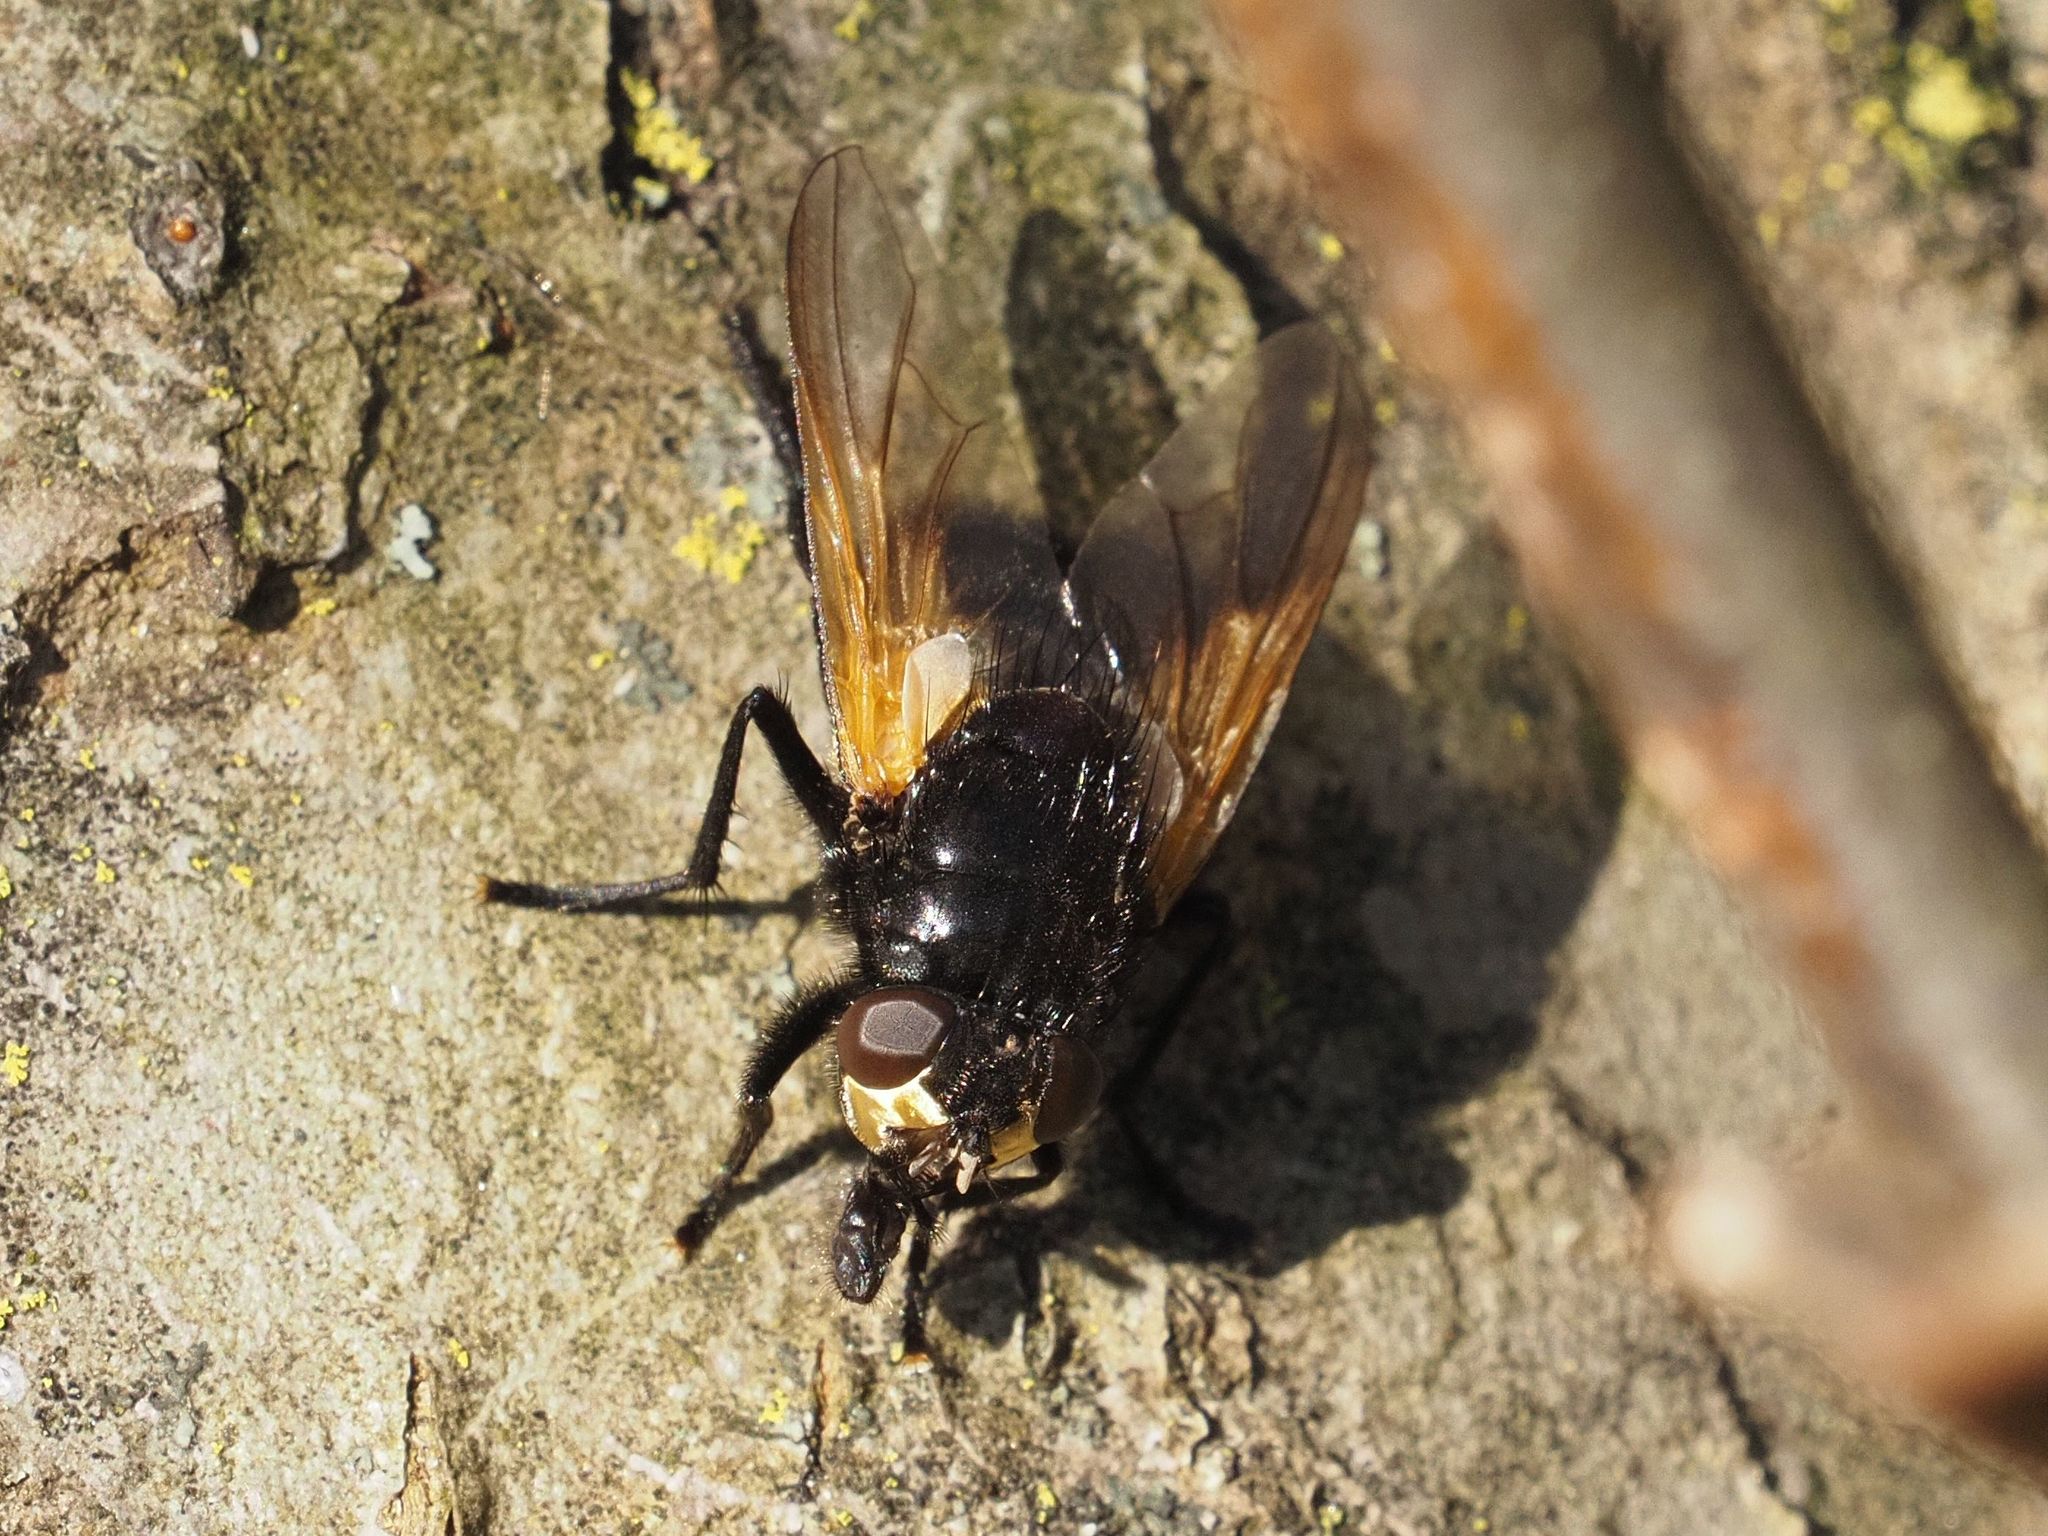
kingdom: Animalia
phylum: Arthropoda
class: Insecta
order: Diptera
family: Muscidae
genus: Mesembrina
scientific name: Mesembrina meridiana
